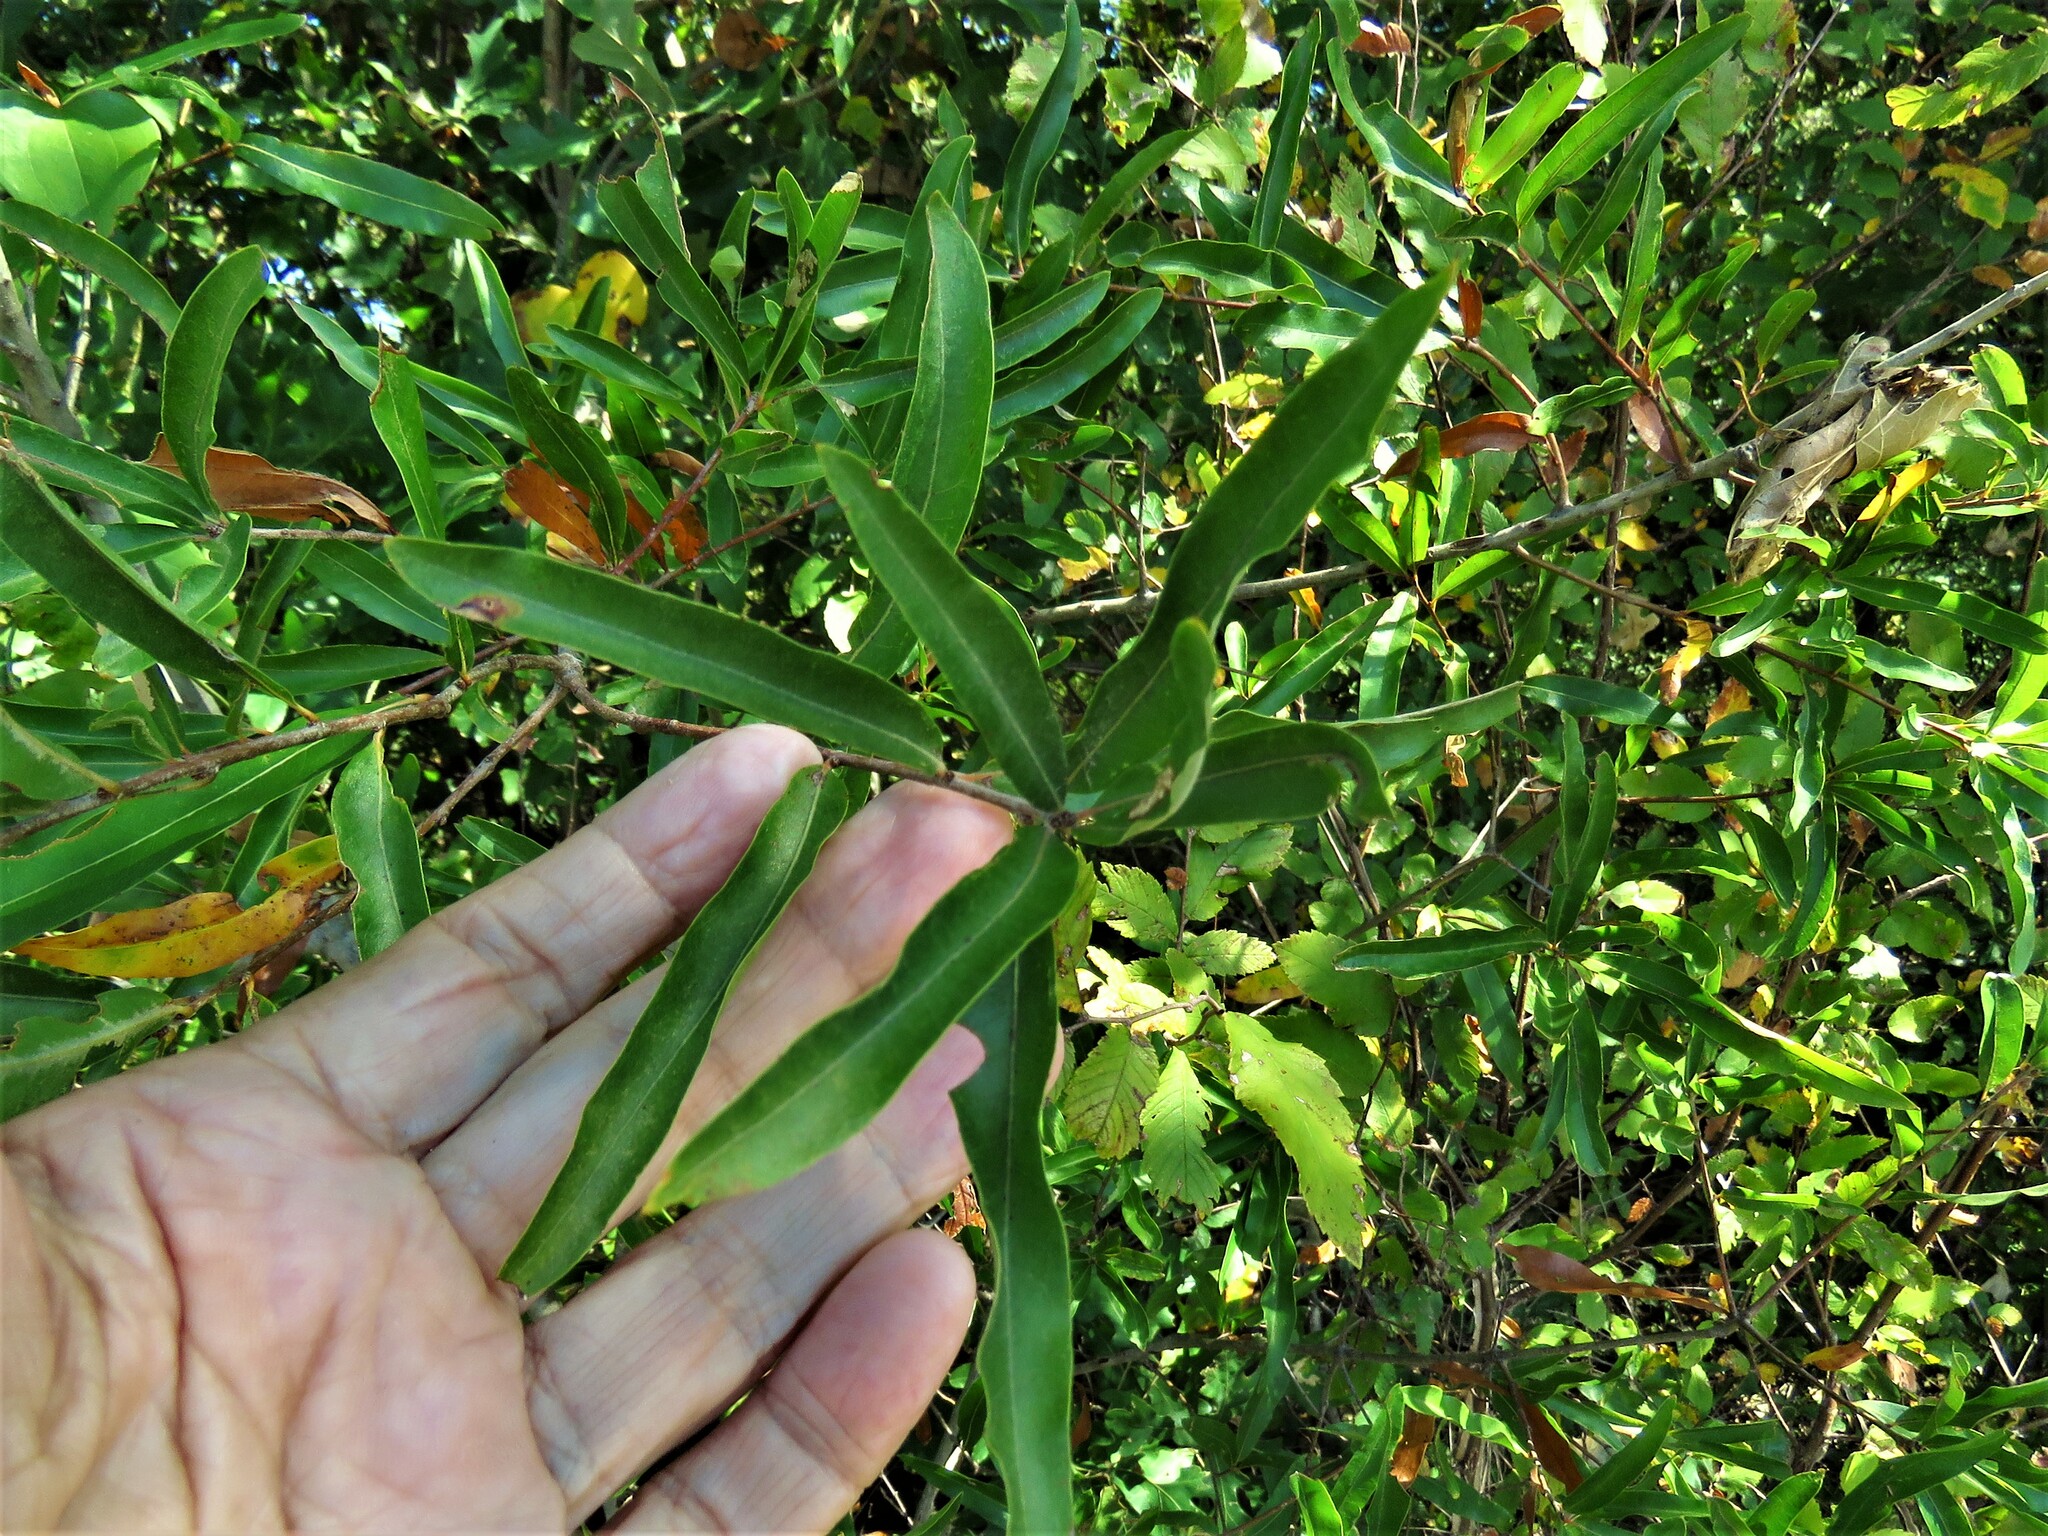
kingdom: Plantae
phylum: Tracheophyta
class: Magnoliopsida
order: Fagales
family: Fagaceae
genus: Quercus
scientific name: Quercus phellos
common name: Willow oak
